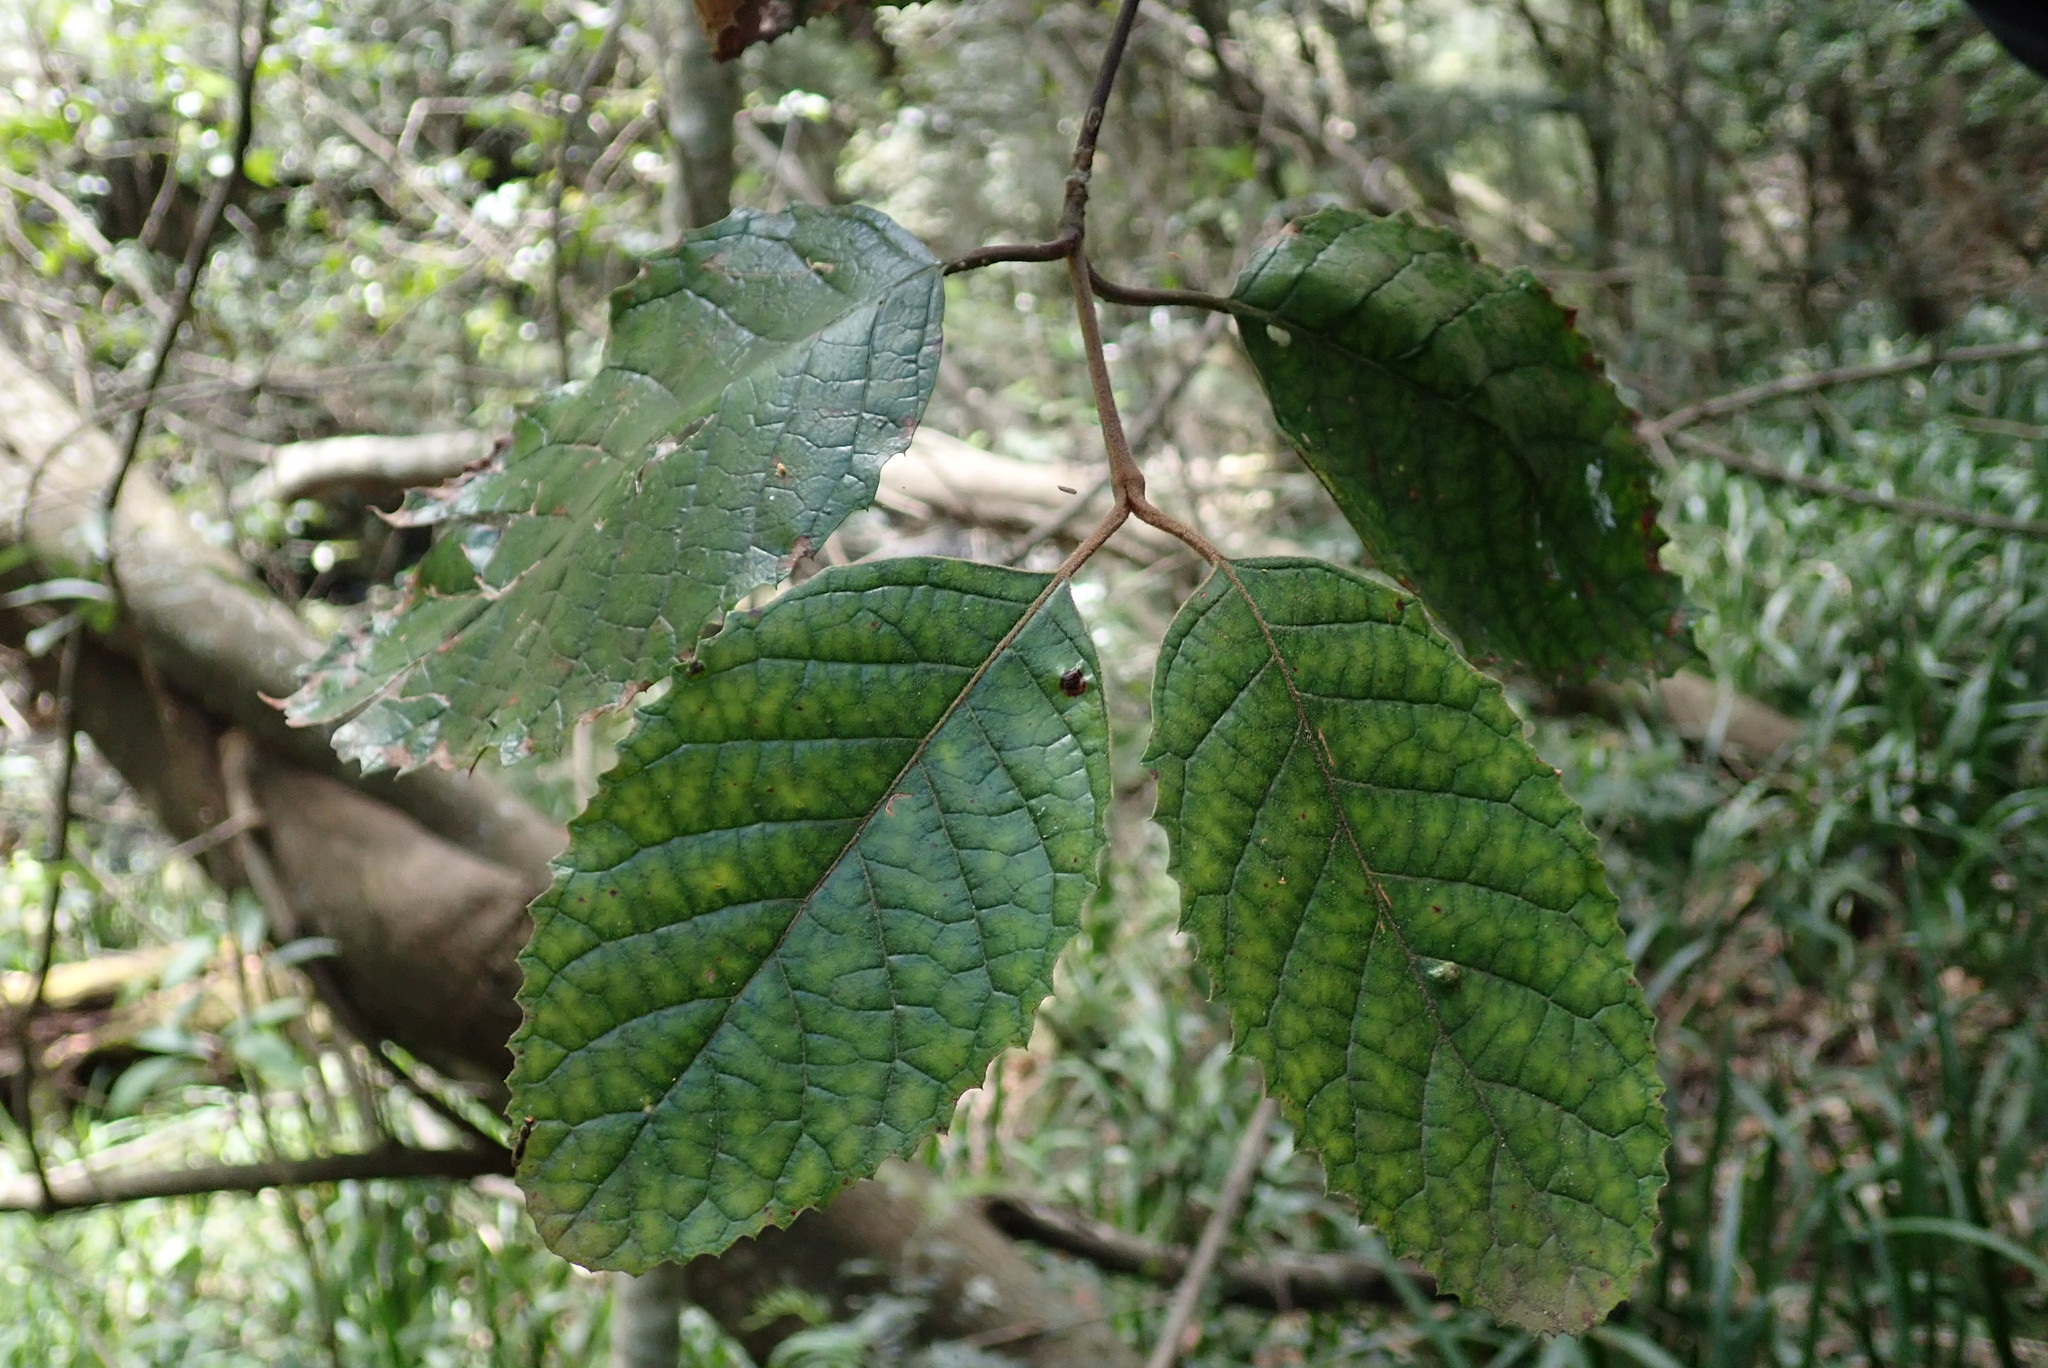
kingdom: Plantae
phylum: Tracheophyta
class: Magnoliopsida
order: Cornales
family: Curtisiaceae
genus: Curtisia
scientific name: Curtisia dentata
